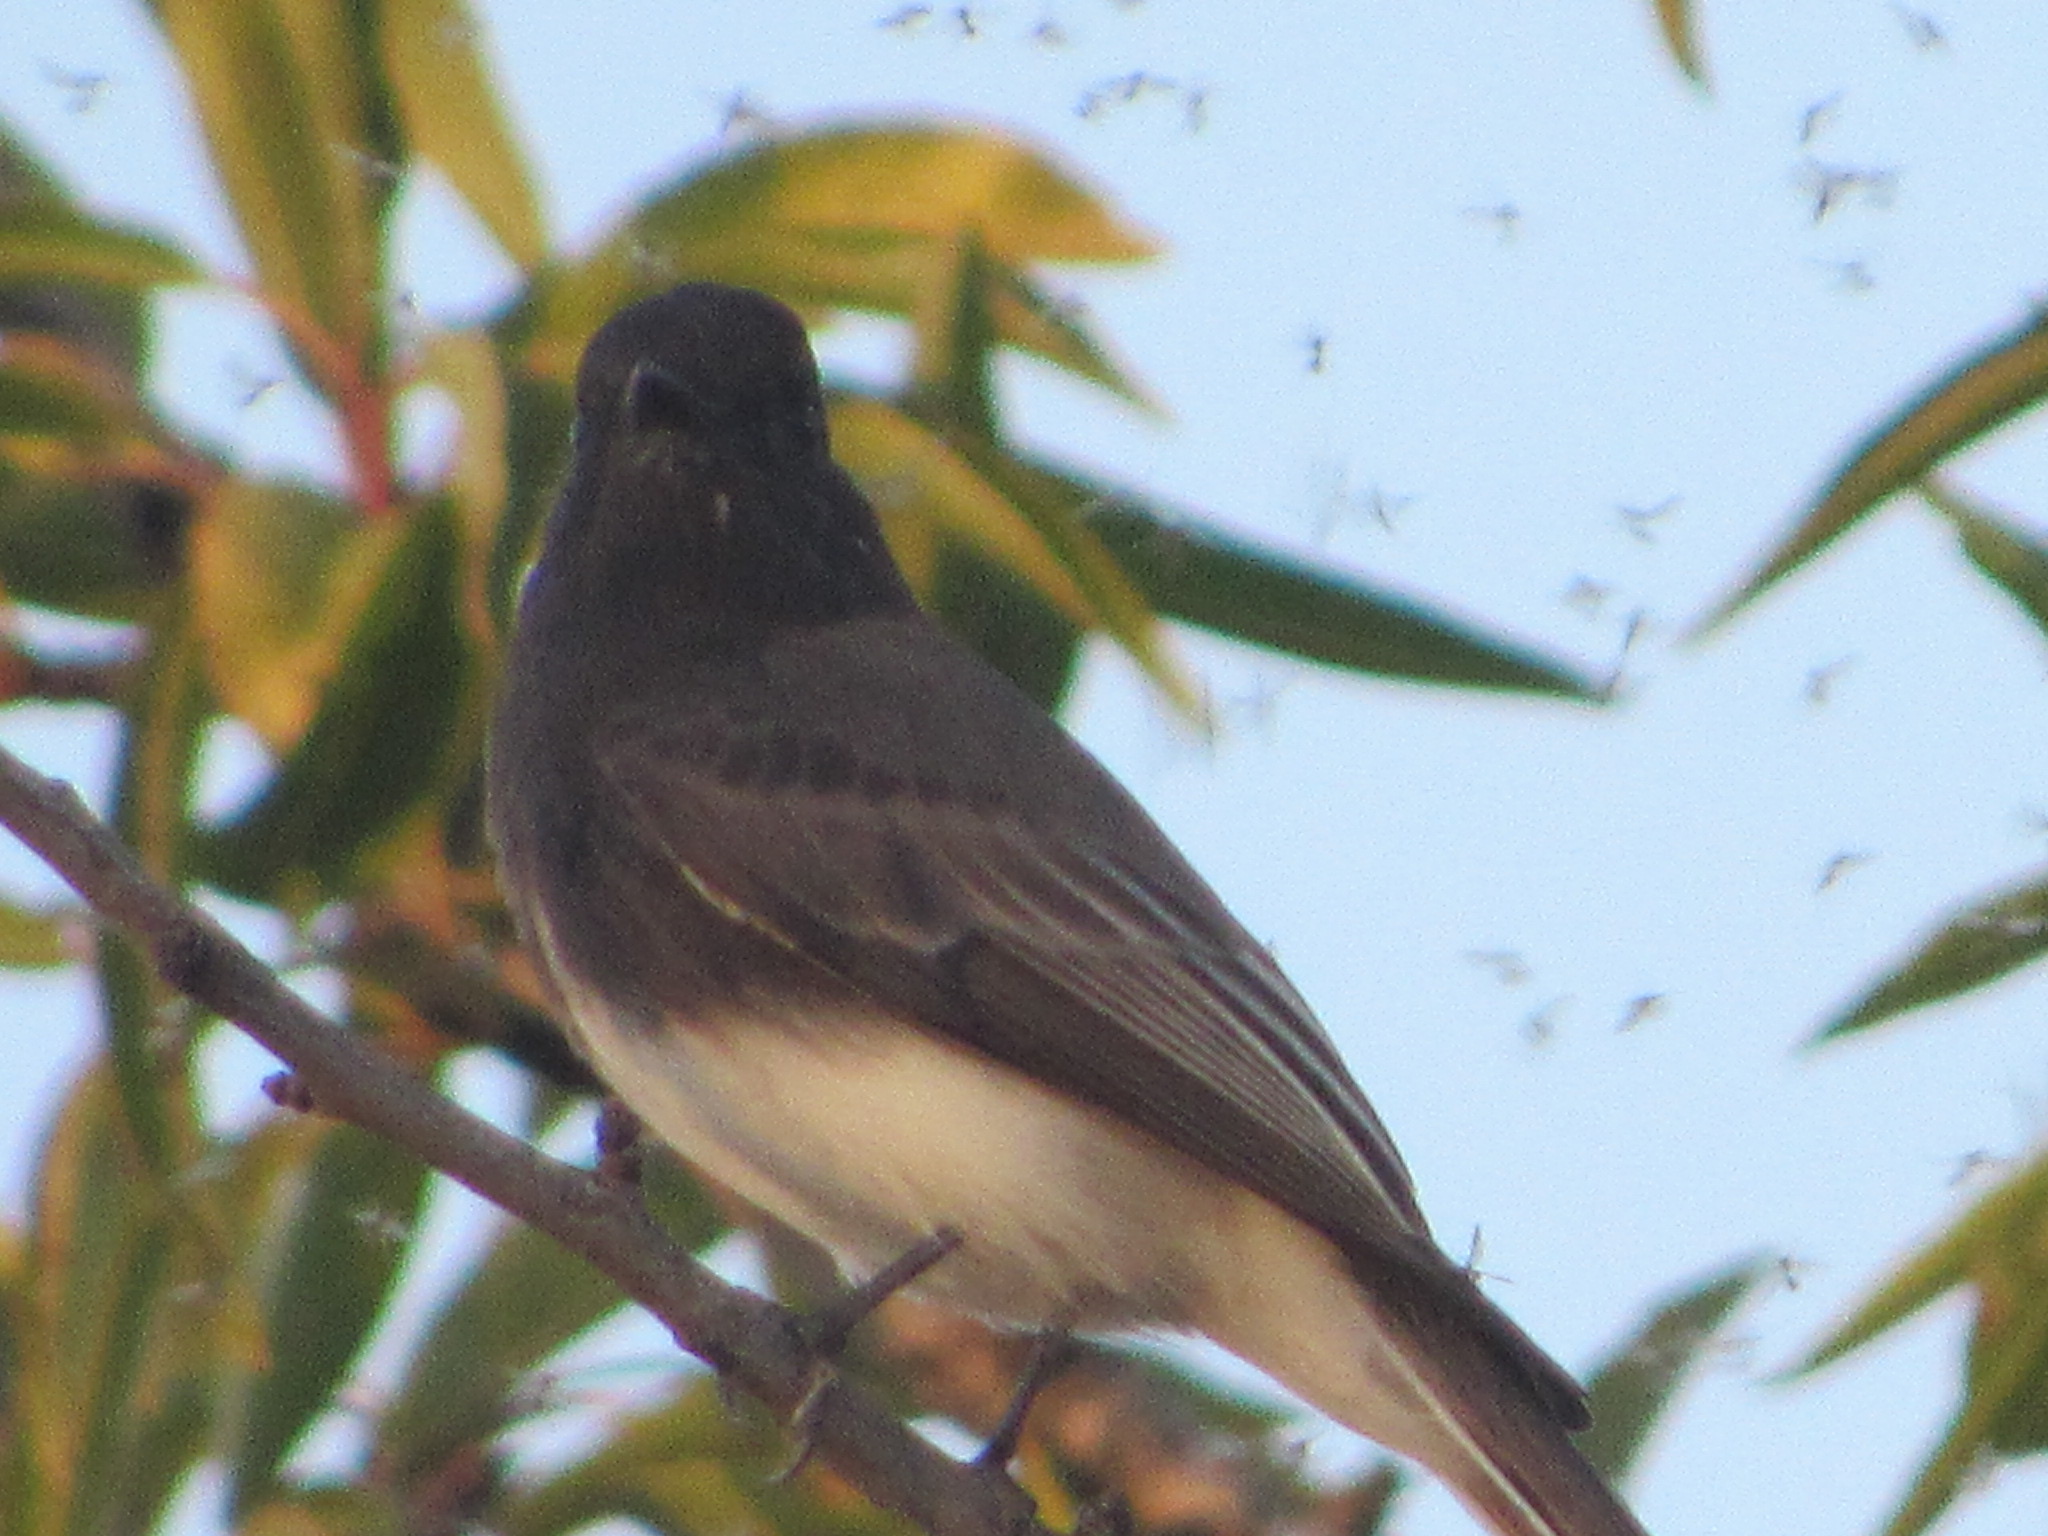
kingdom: Animalia
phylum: Chordata
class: Aves
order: Passeriformes
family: Tyrannidae
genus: Sayornis
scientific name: Sayornis nigricans
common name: Black phoebe
